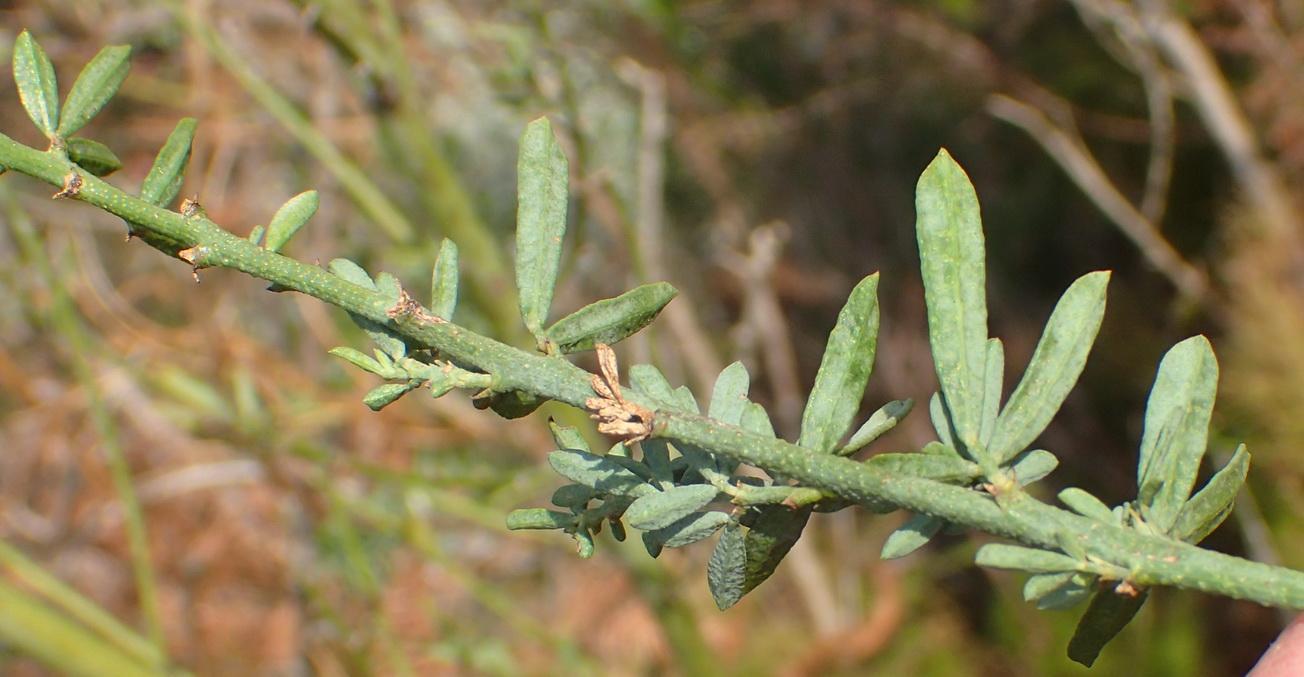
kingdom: Plantae
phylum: Tracheophyta
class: Magnoliopsida
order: Fabales
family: Fabaceae
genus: Psoralea
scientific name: Psoralea axillaris
